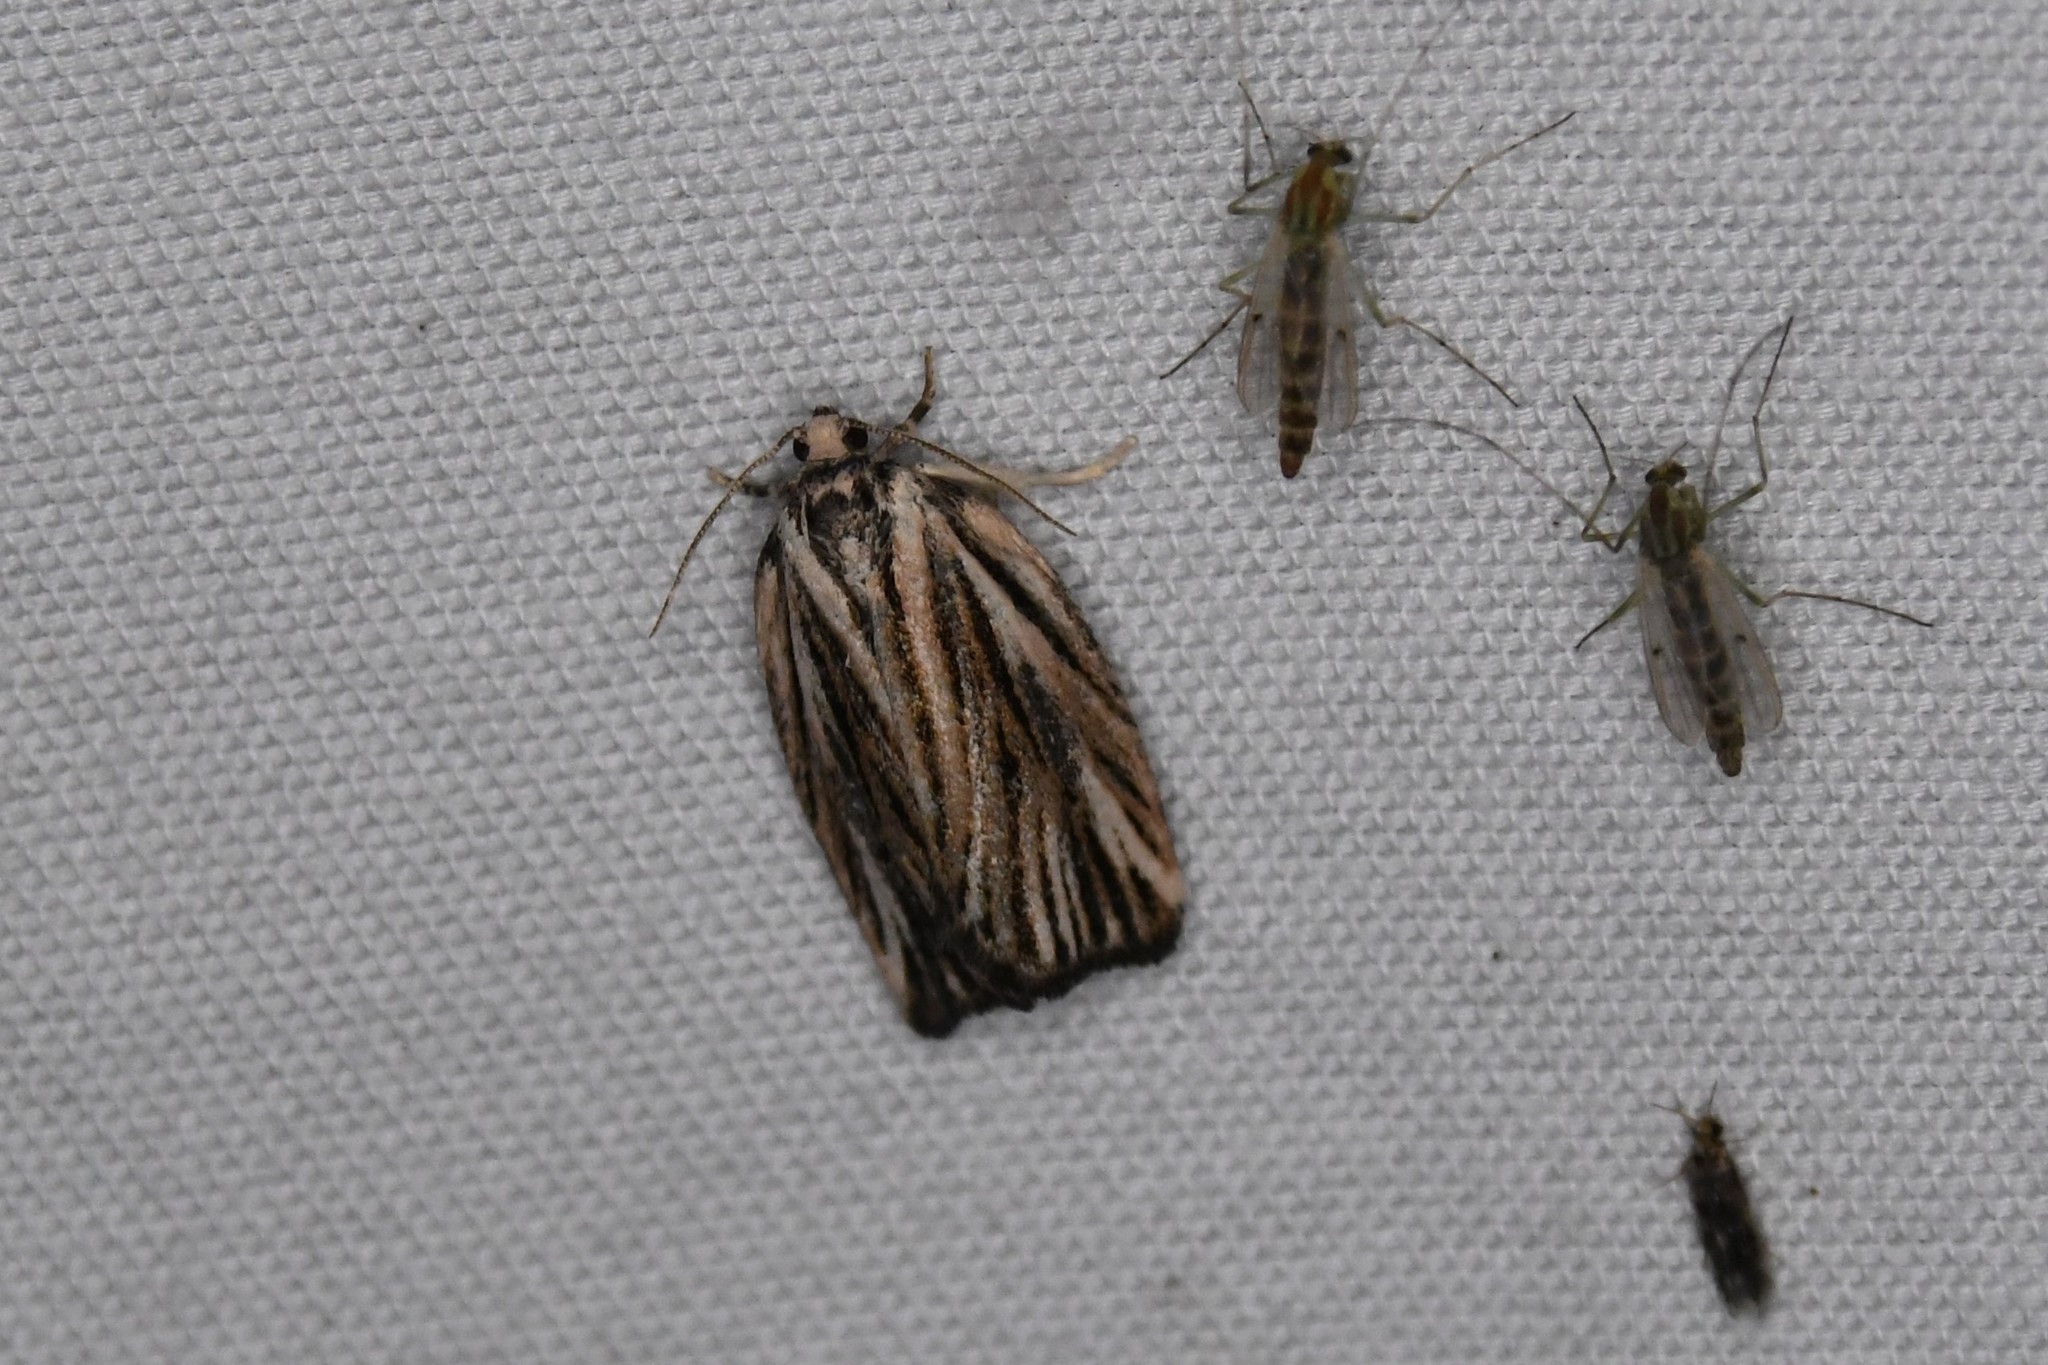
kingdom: Animalia
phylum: Arthropoda
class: Insecta
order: Lepidoptera
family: Tortricidae
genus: Archips
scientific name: Archips strianus
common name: Striated tortrix moth
